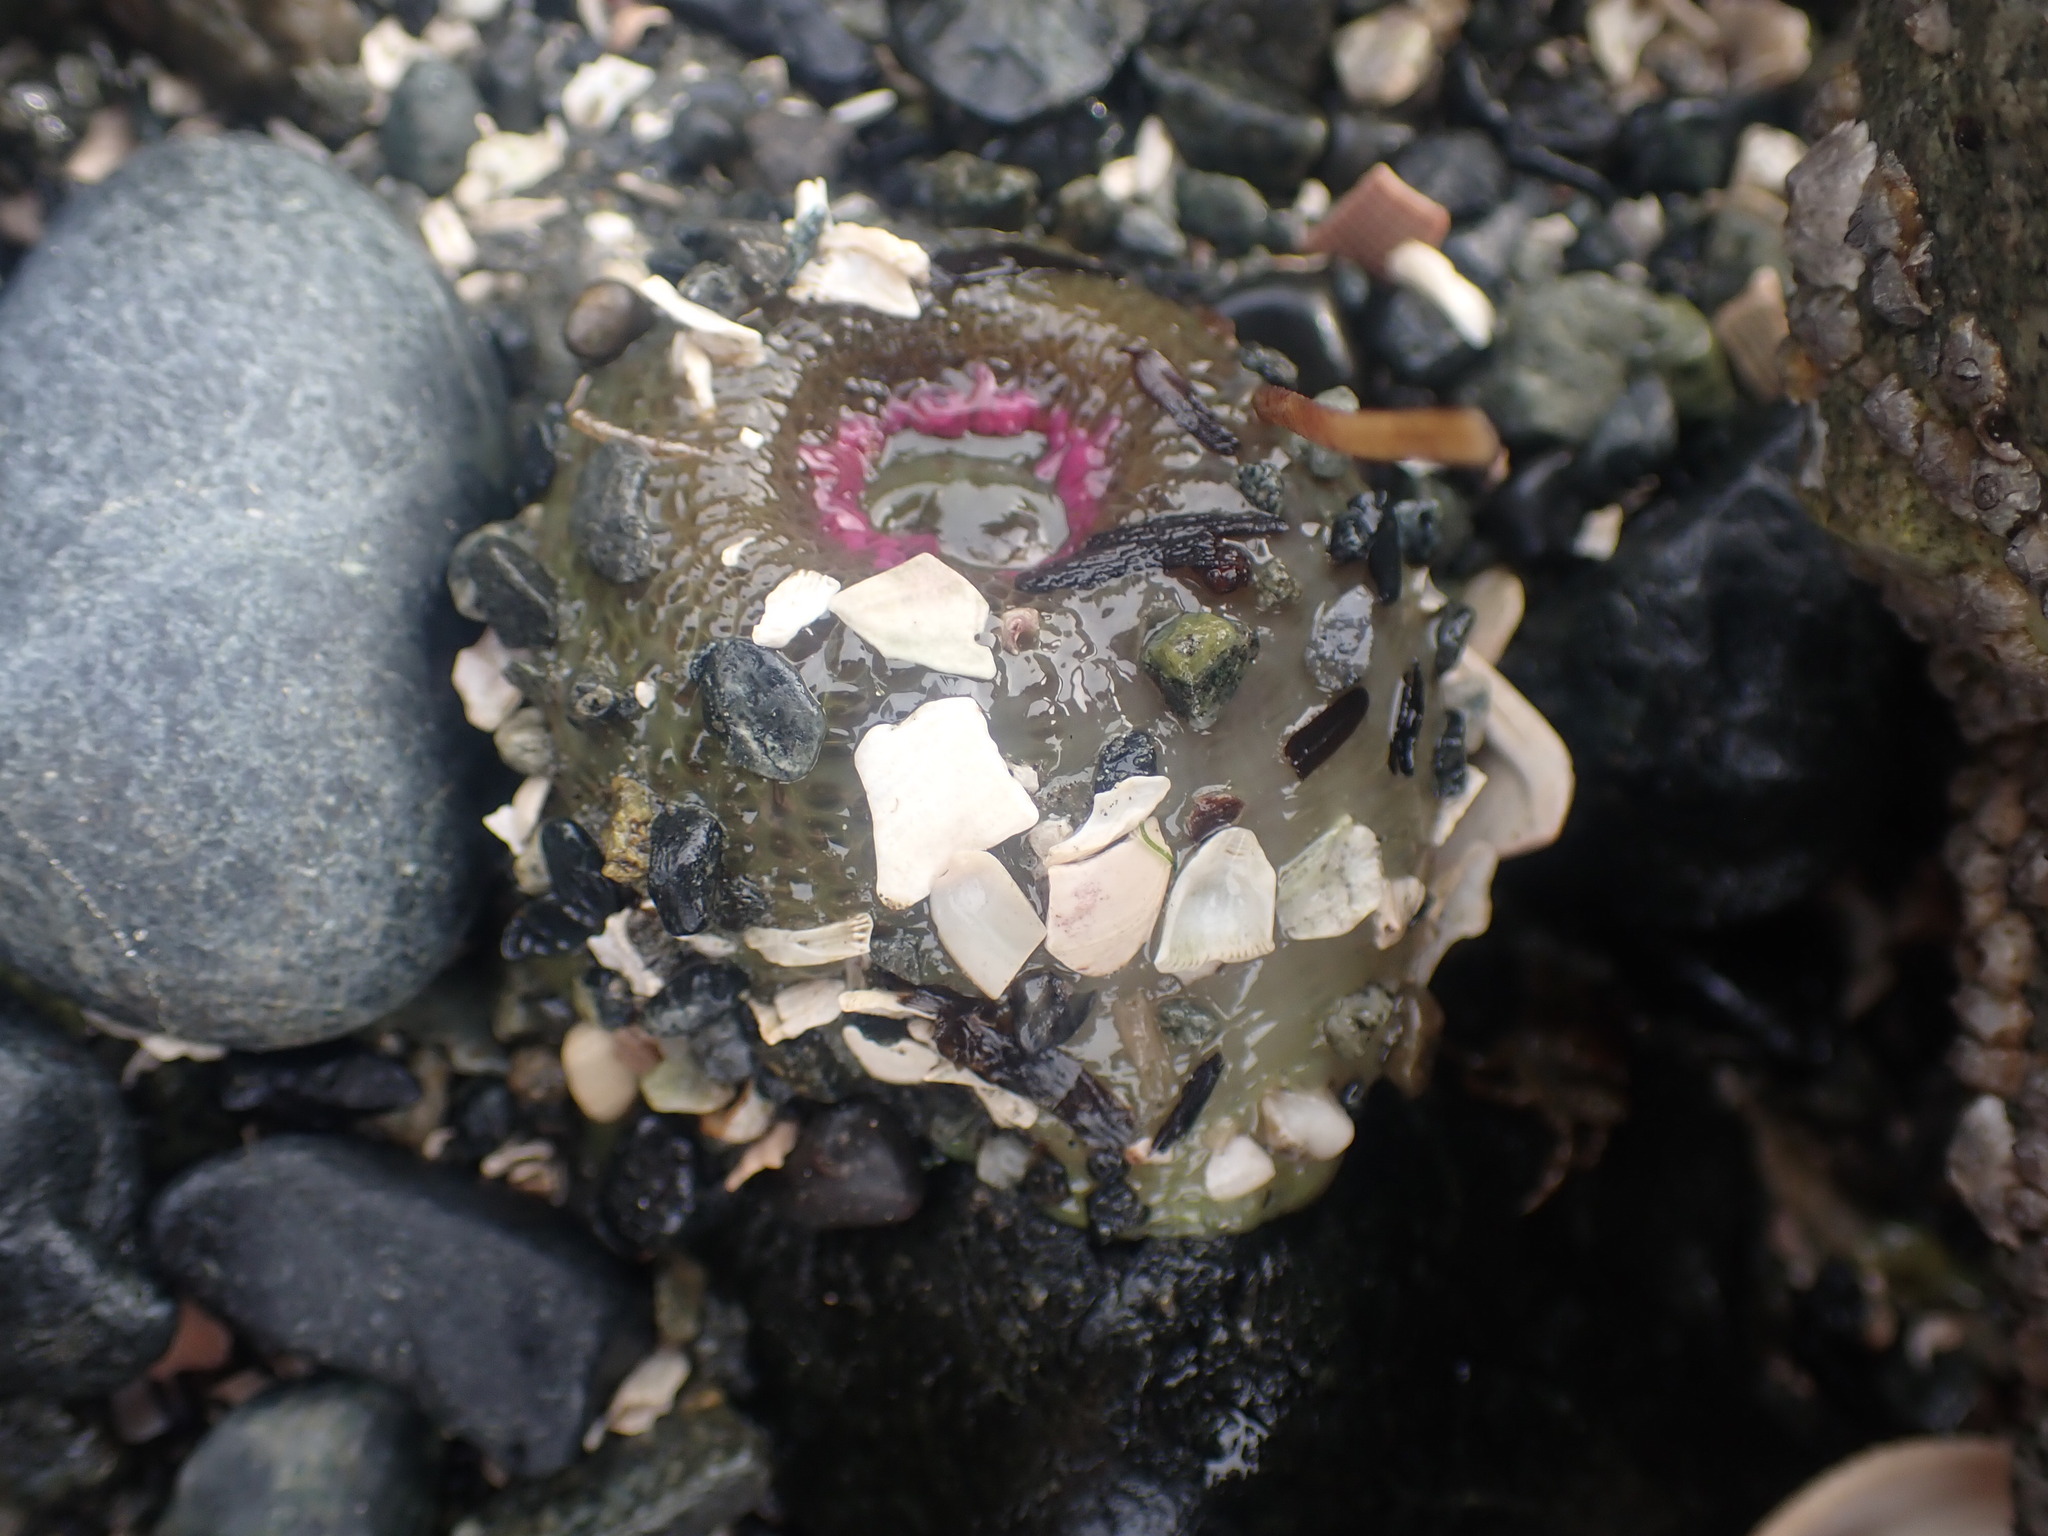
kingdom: Animalia
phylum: Cnidaria
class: Anthozoa
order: Actiniaria
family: Actiniidae
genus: Anthopleura
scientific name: Anthopleura elegantissima
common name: Clonal anemone
